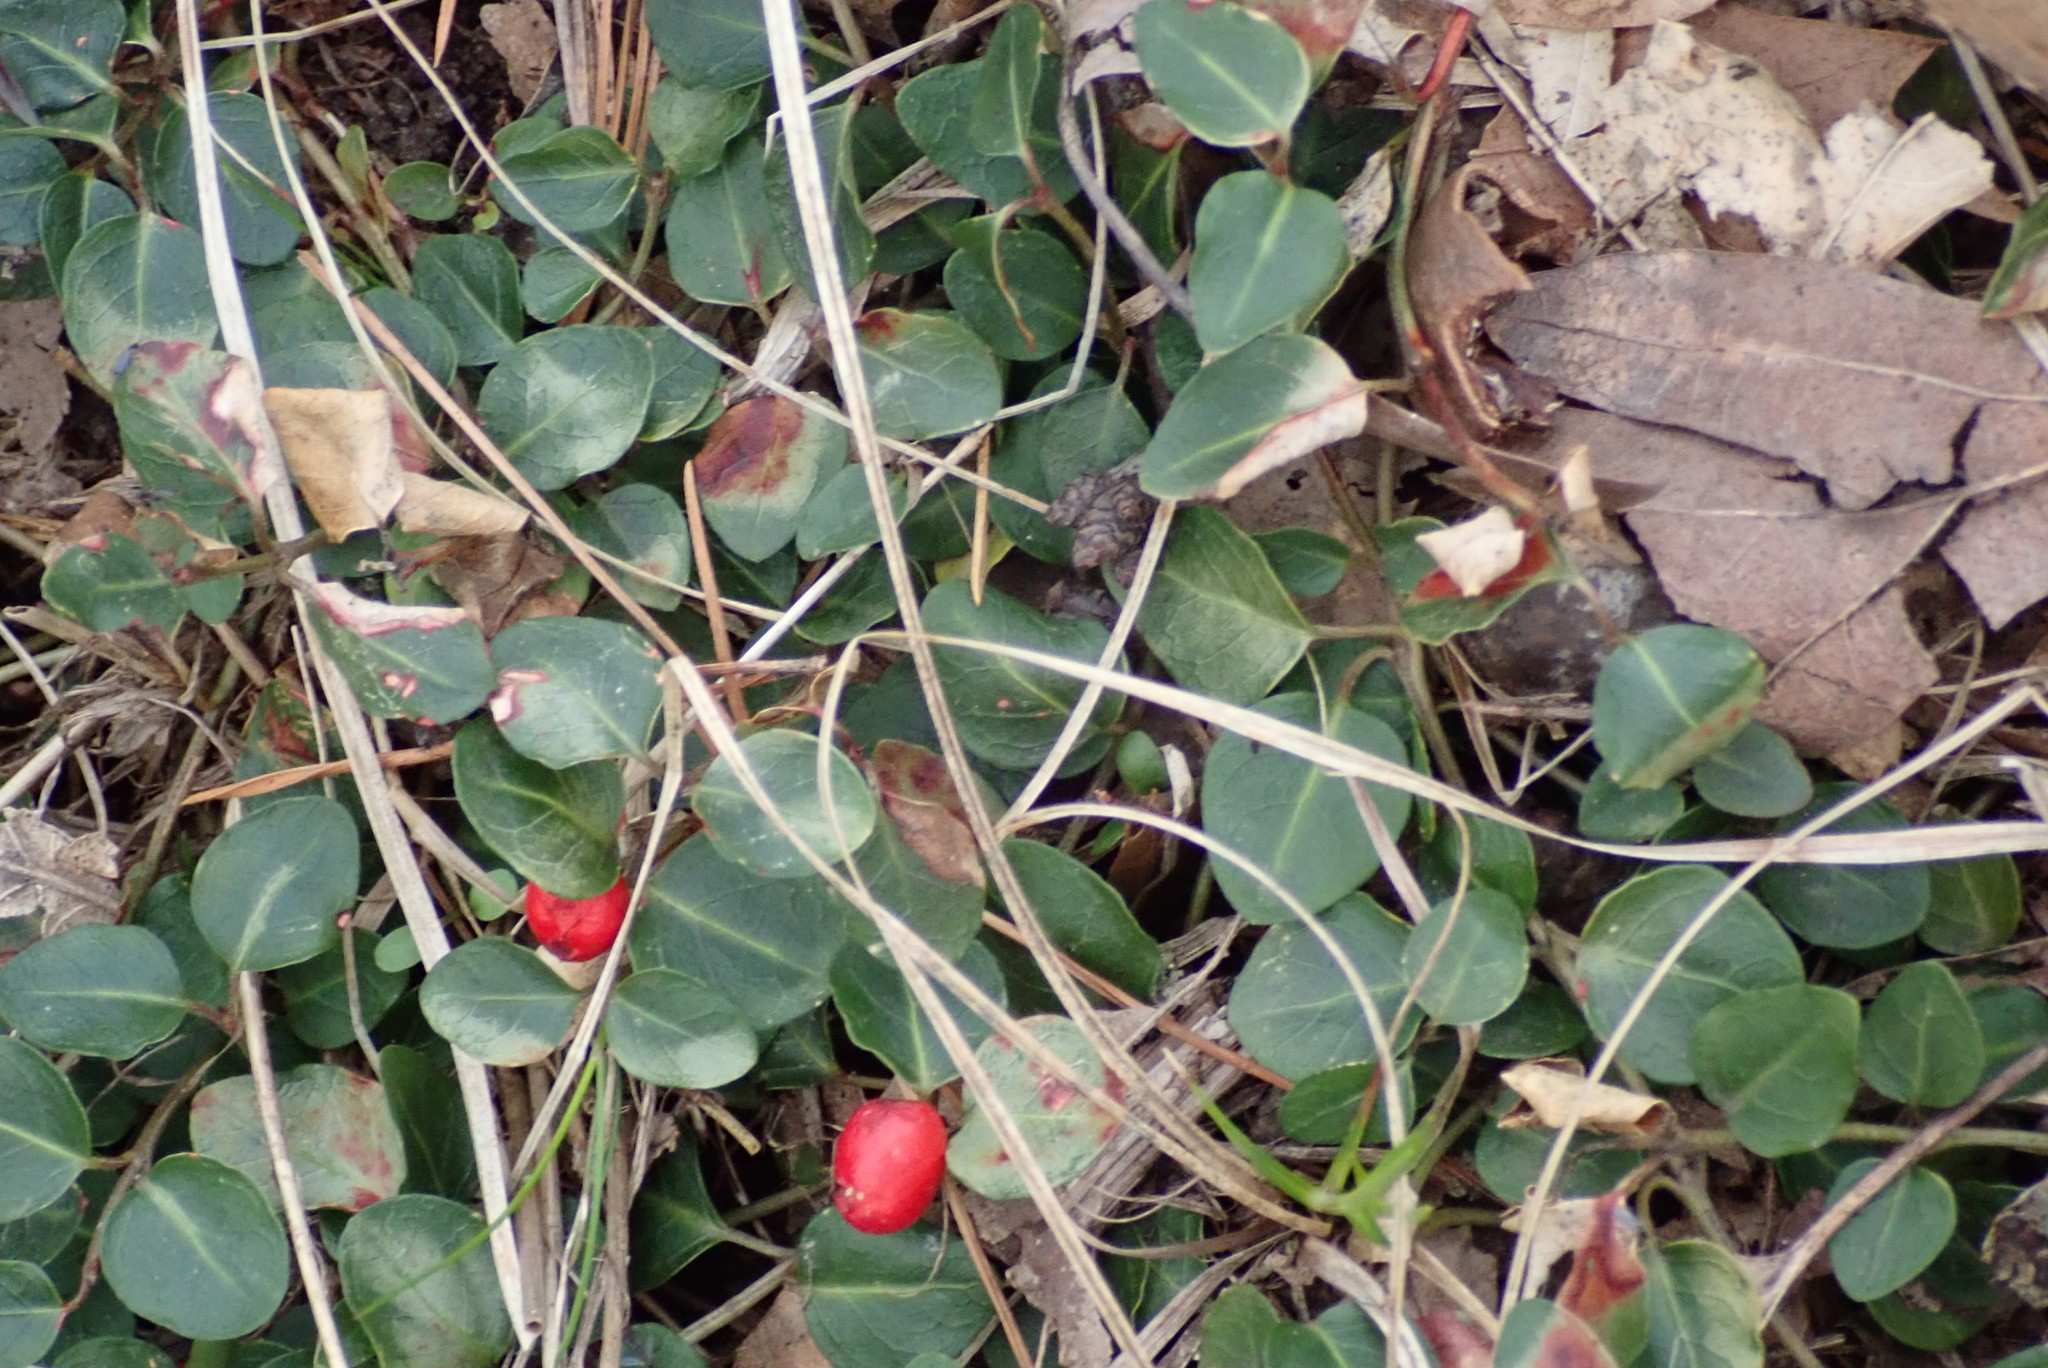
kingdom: Plantae
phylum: Tracheophyta
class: Magnoliopsida
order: Gentianales
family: Rubiaceae
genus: Mitchella
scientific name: Mitchella repens
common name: Partridge-berry
